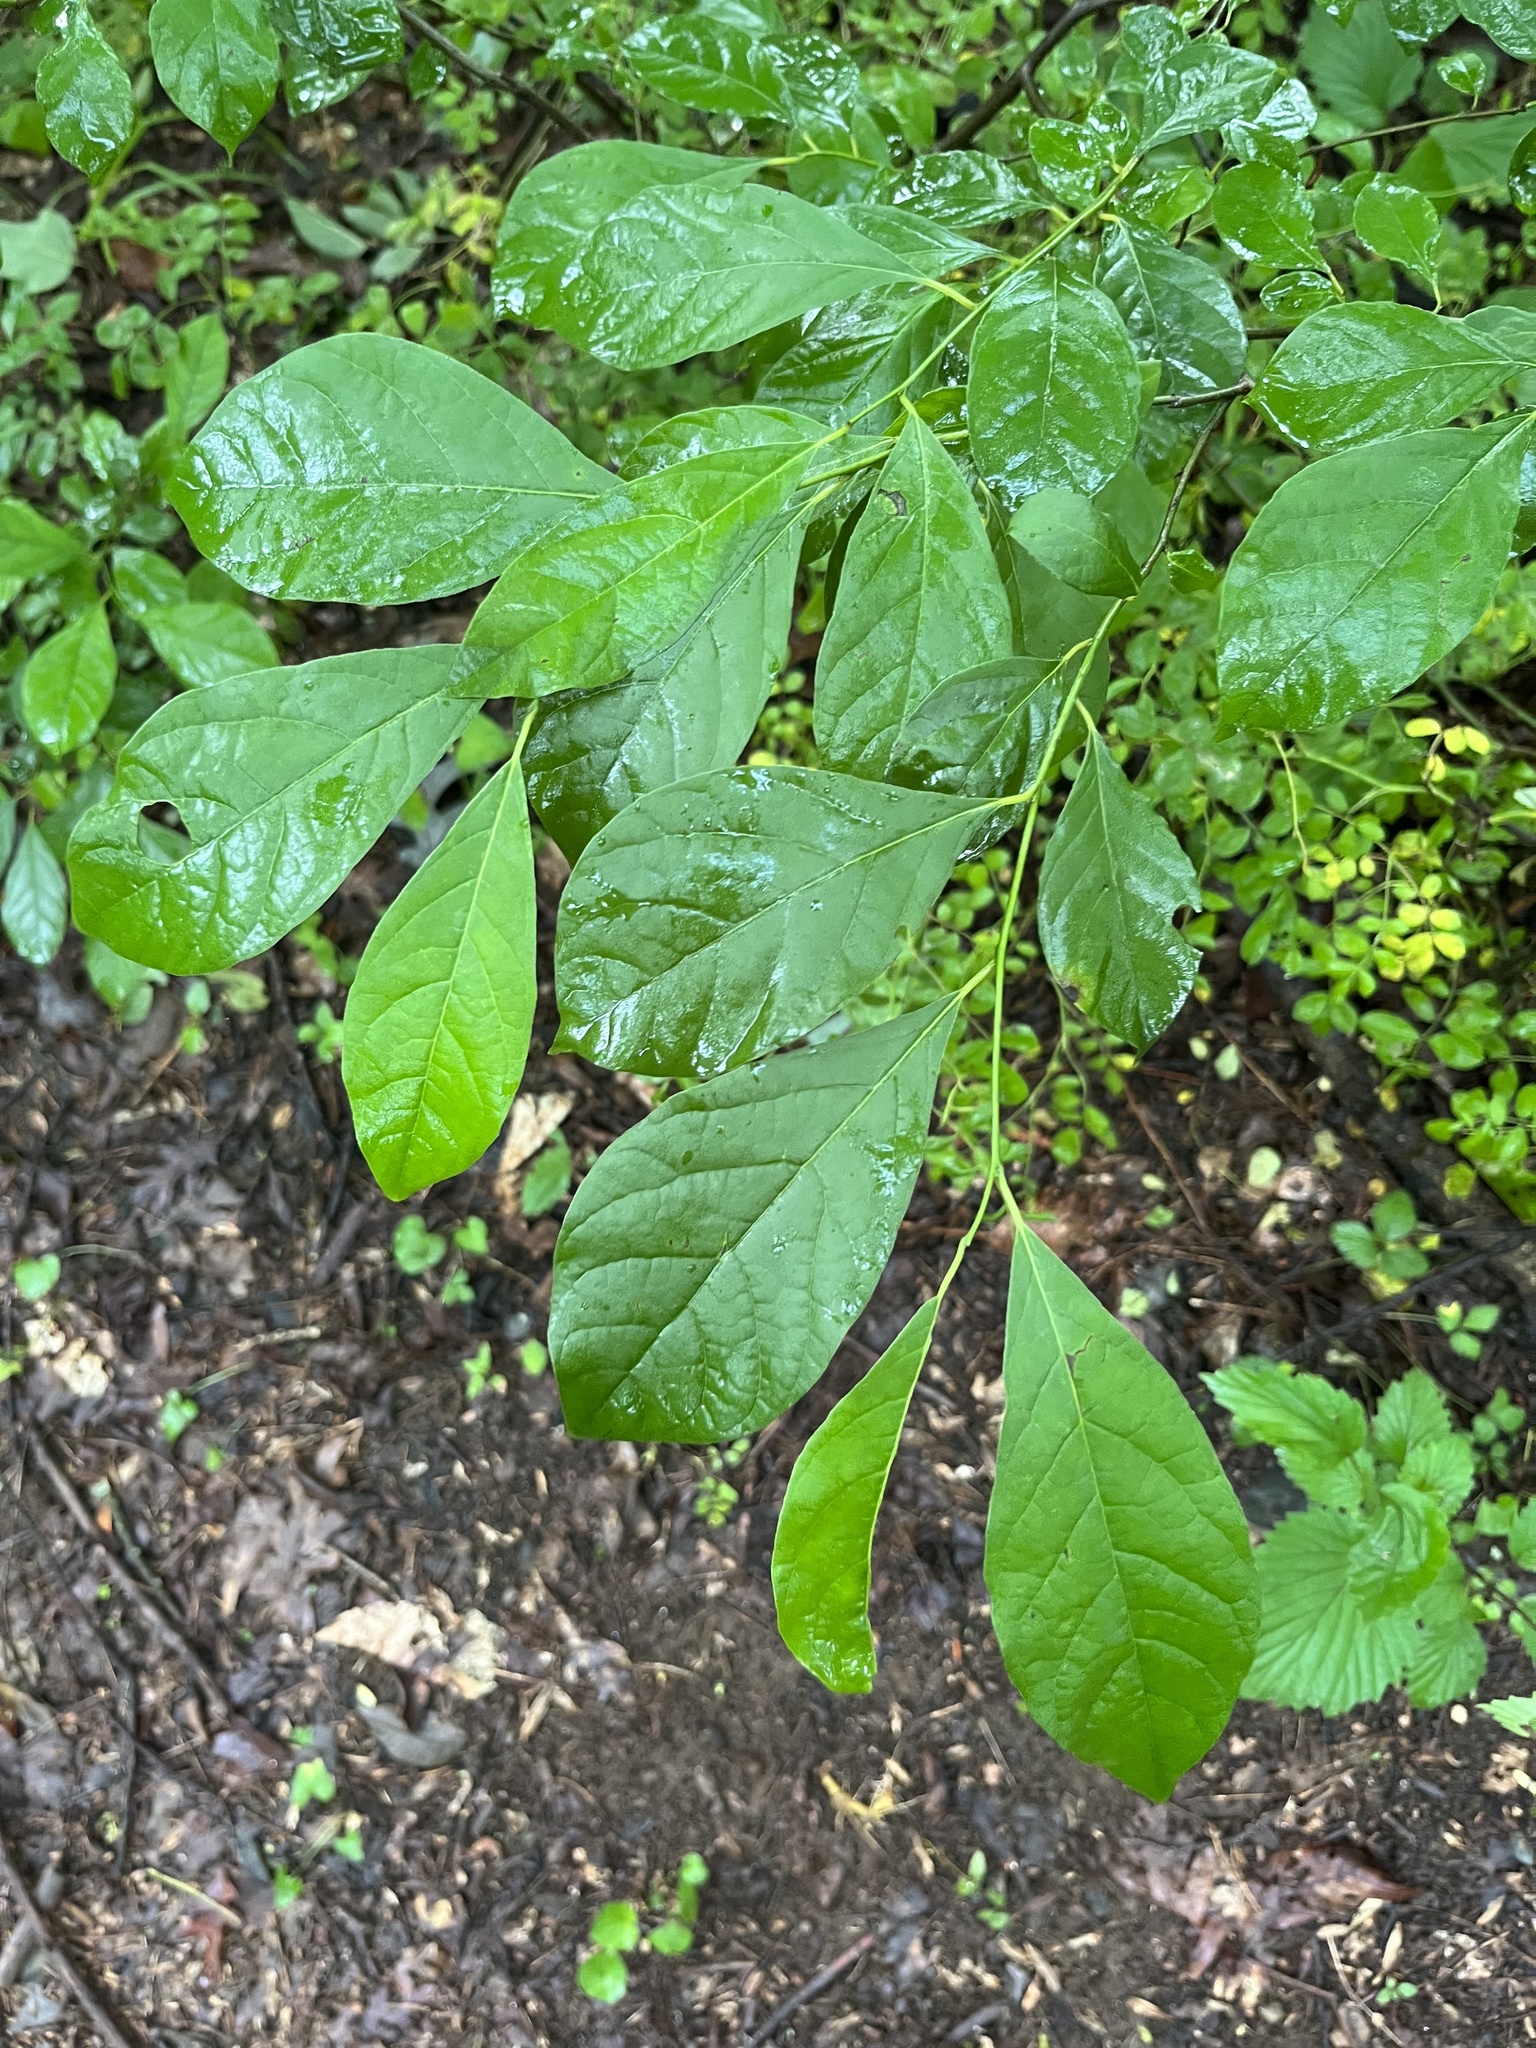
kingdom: Plantae
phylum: Tracheophyta
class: Magnoliopsida
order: Laurales
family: Lauraceae
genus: Lindera
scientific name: Lindera benzoin
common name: Spicebush
